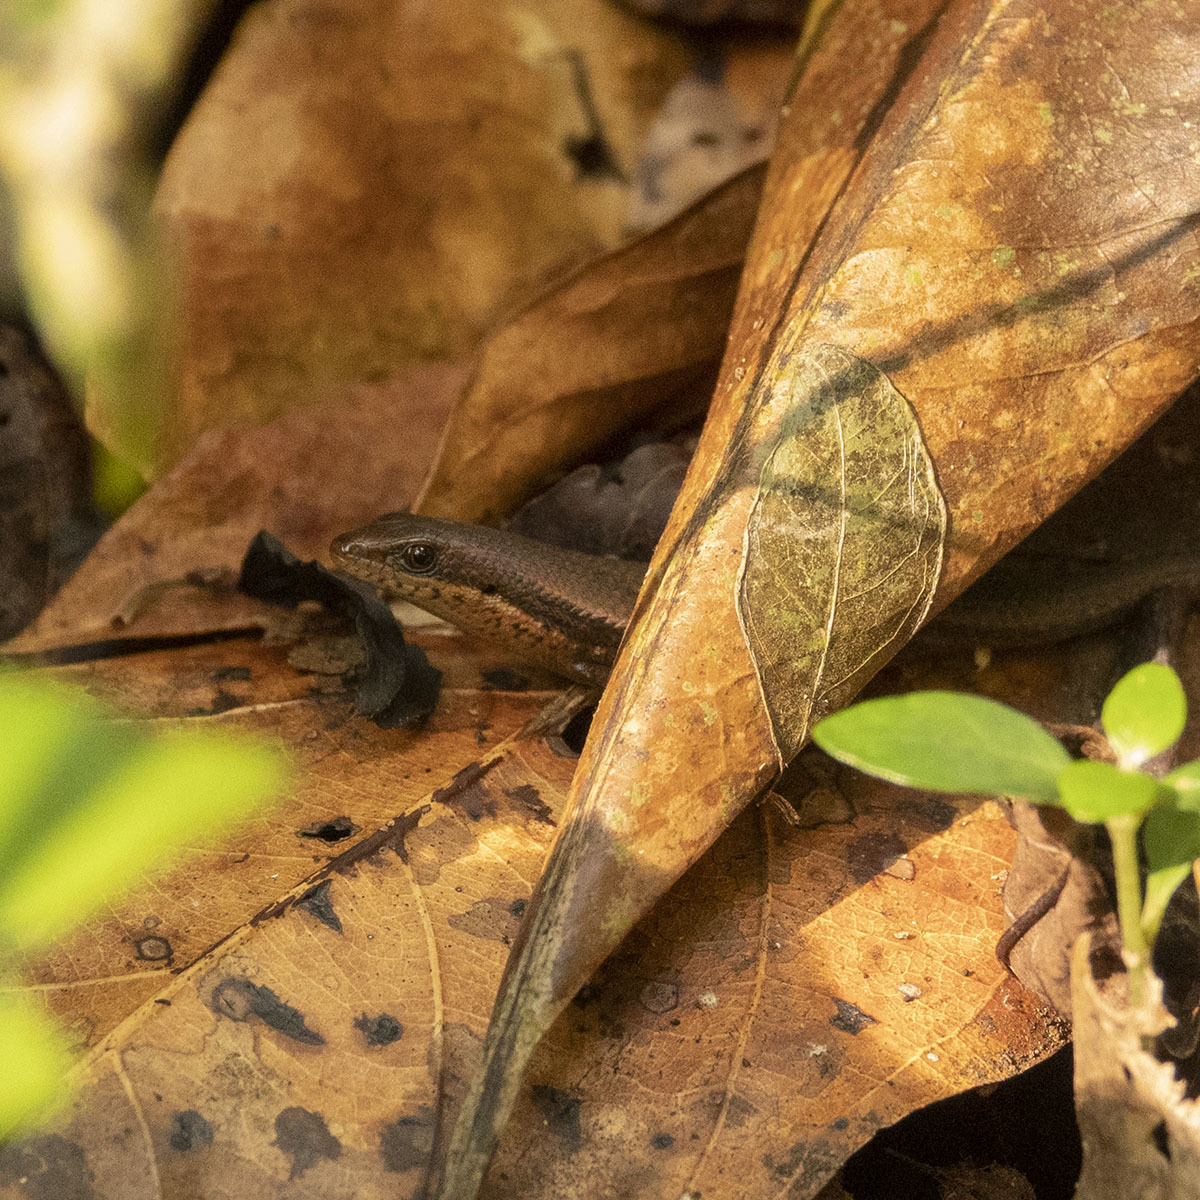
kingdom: Animalia
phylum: Chordata
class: Squamata
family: Scincidae
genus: Eutropis
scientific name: Eutropis macularia
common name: Bronze mabuya
